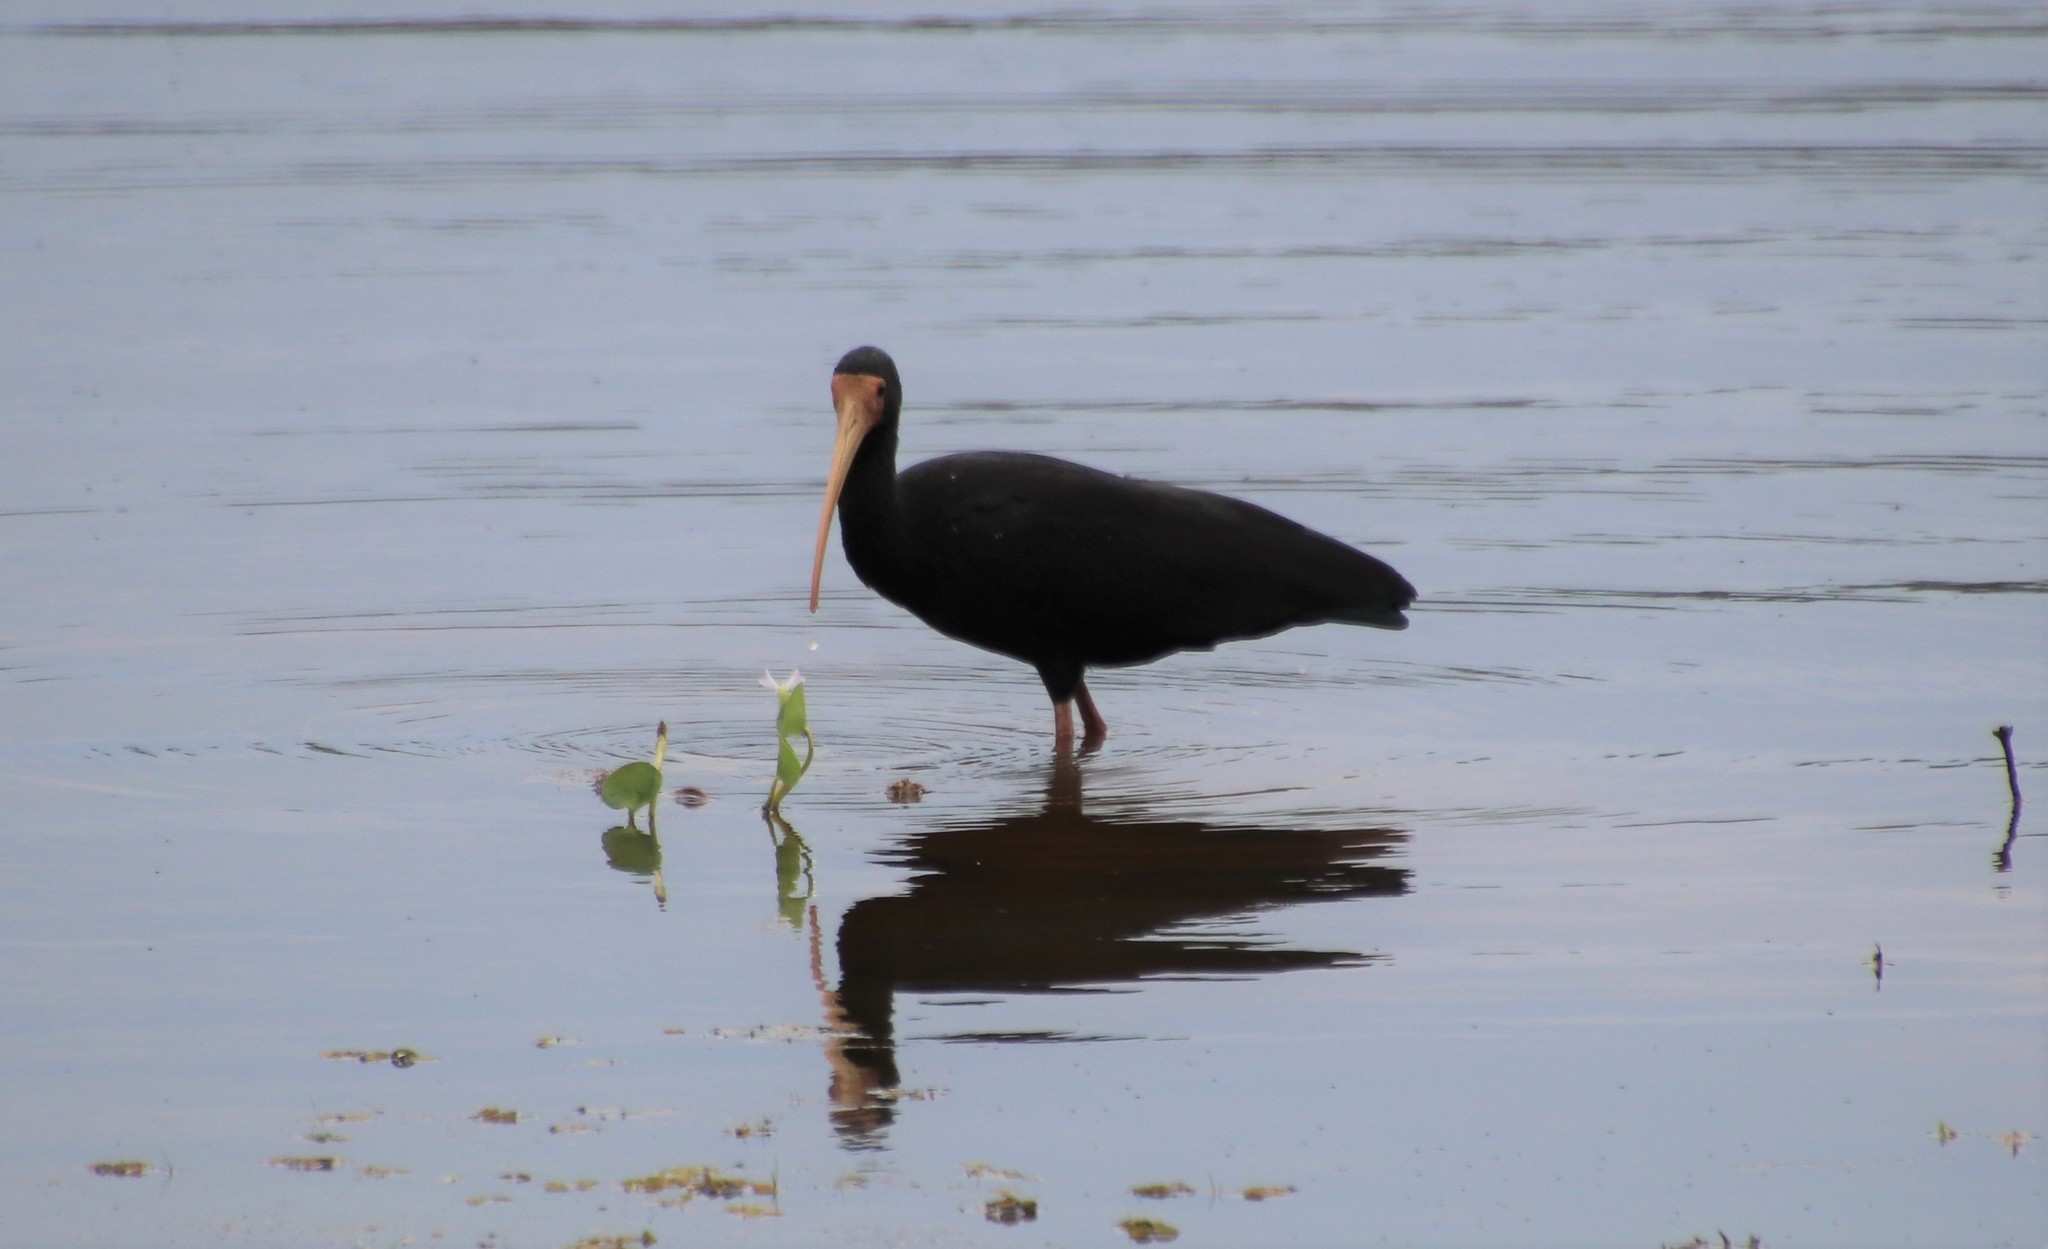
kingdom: Animalia
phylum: Chordata
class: Aves
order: Pelecaniformes
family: Threskiornithidae
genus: Phimosus
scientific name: Phimosus infuscatus
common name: Bare-faced ibis
